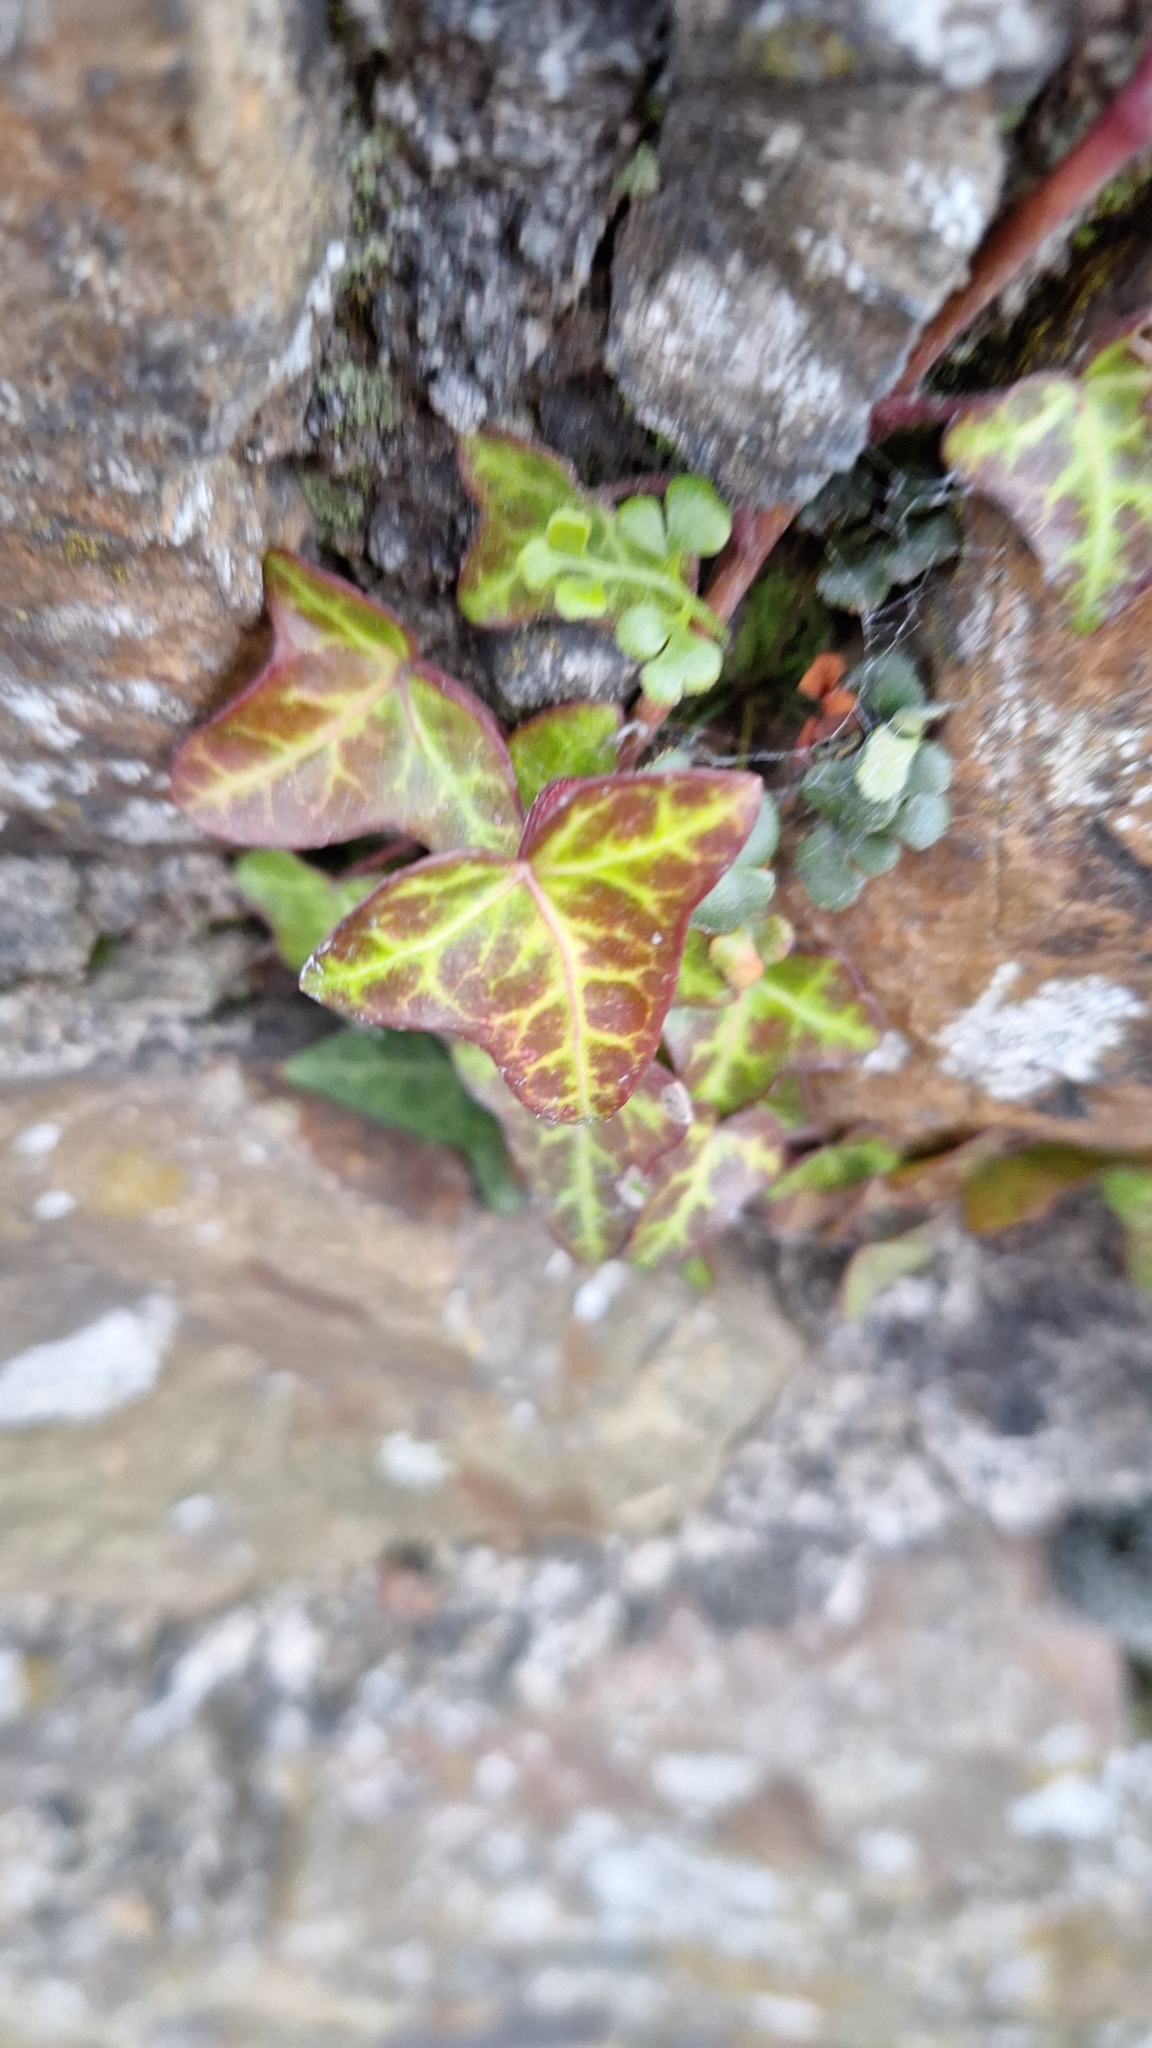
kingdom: Plantae
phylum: Tracheophyta
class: Magnoliopsida
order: Apiales
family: Araliaceae
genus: Hedera
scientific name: Hedera helix
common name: Ivy
